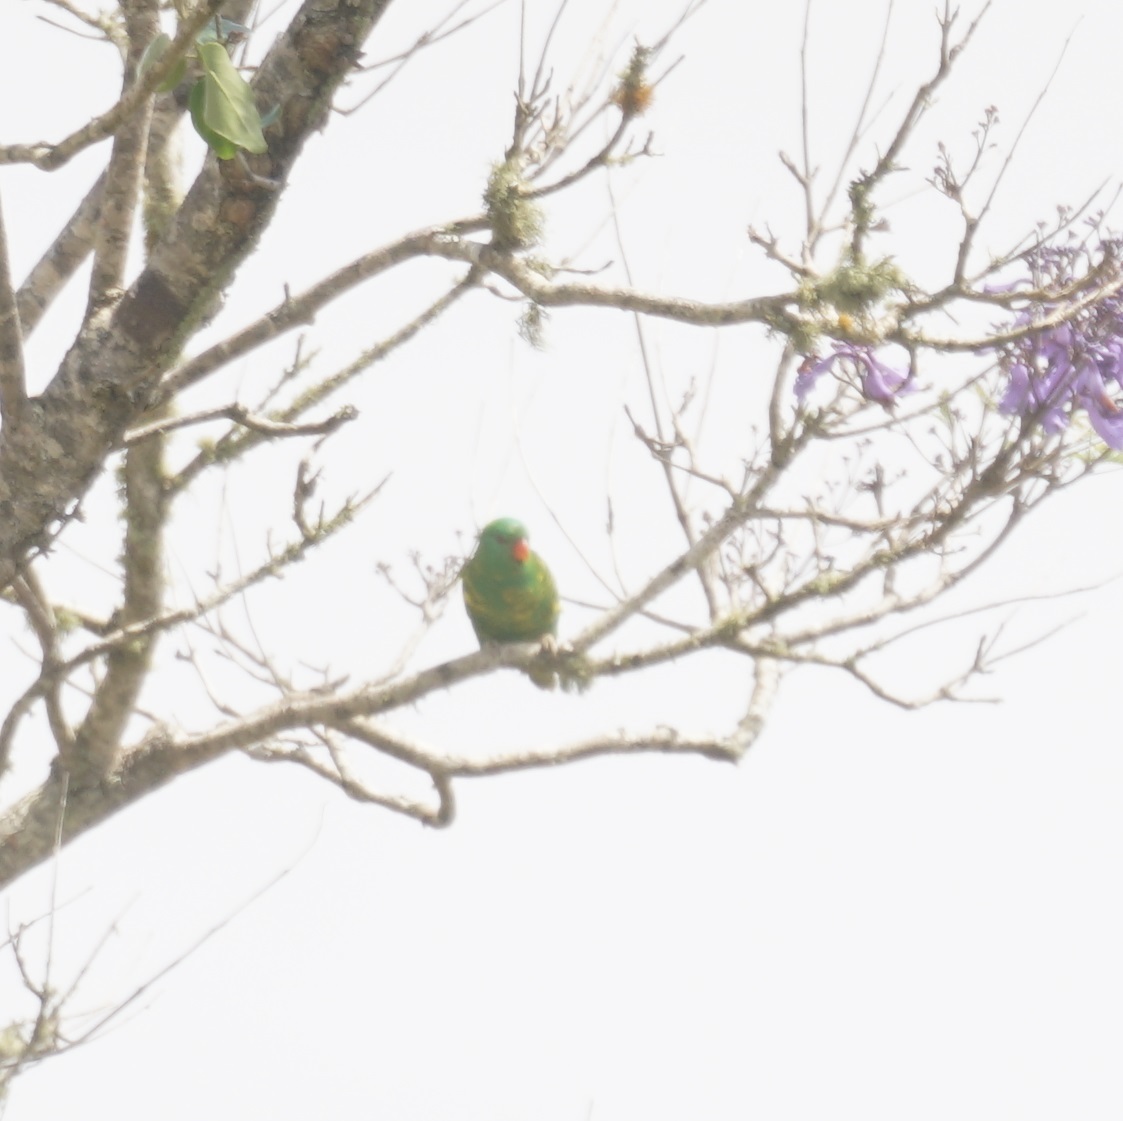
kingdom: Animalia
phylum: Chordata
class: Aves
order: Psittaciformes
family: Psittacidae
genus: Trichoglossus
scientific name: Trichoglossus chlorolepidotus
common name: Scaly-breasted lorikeet
